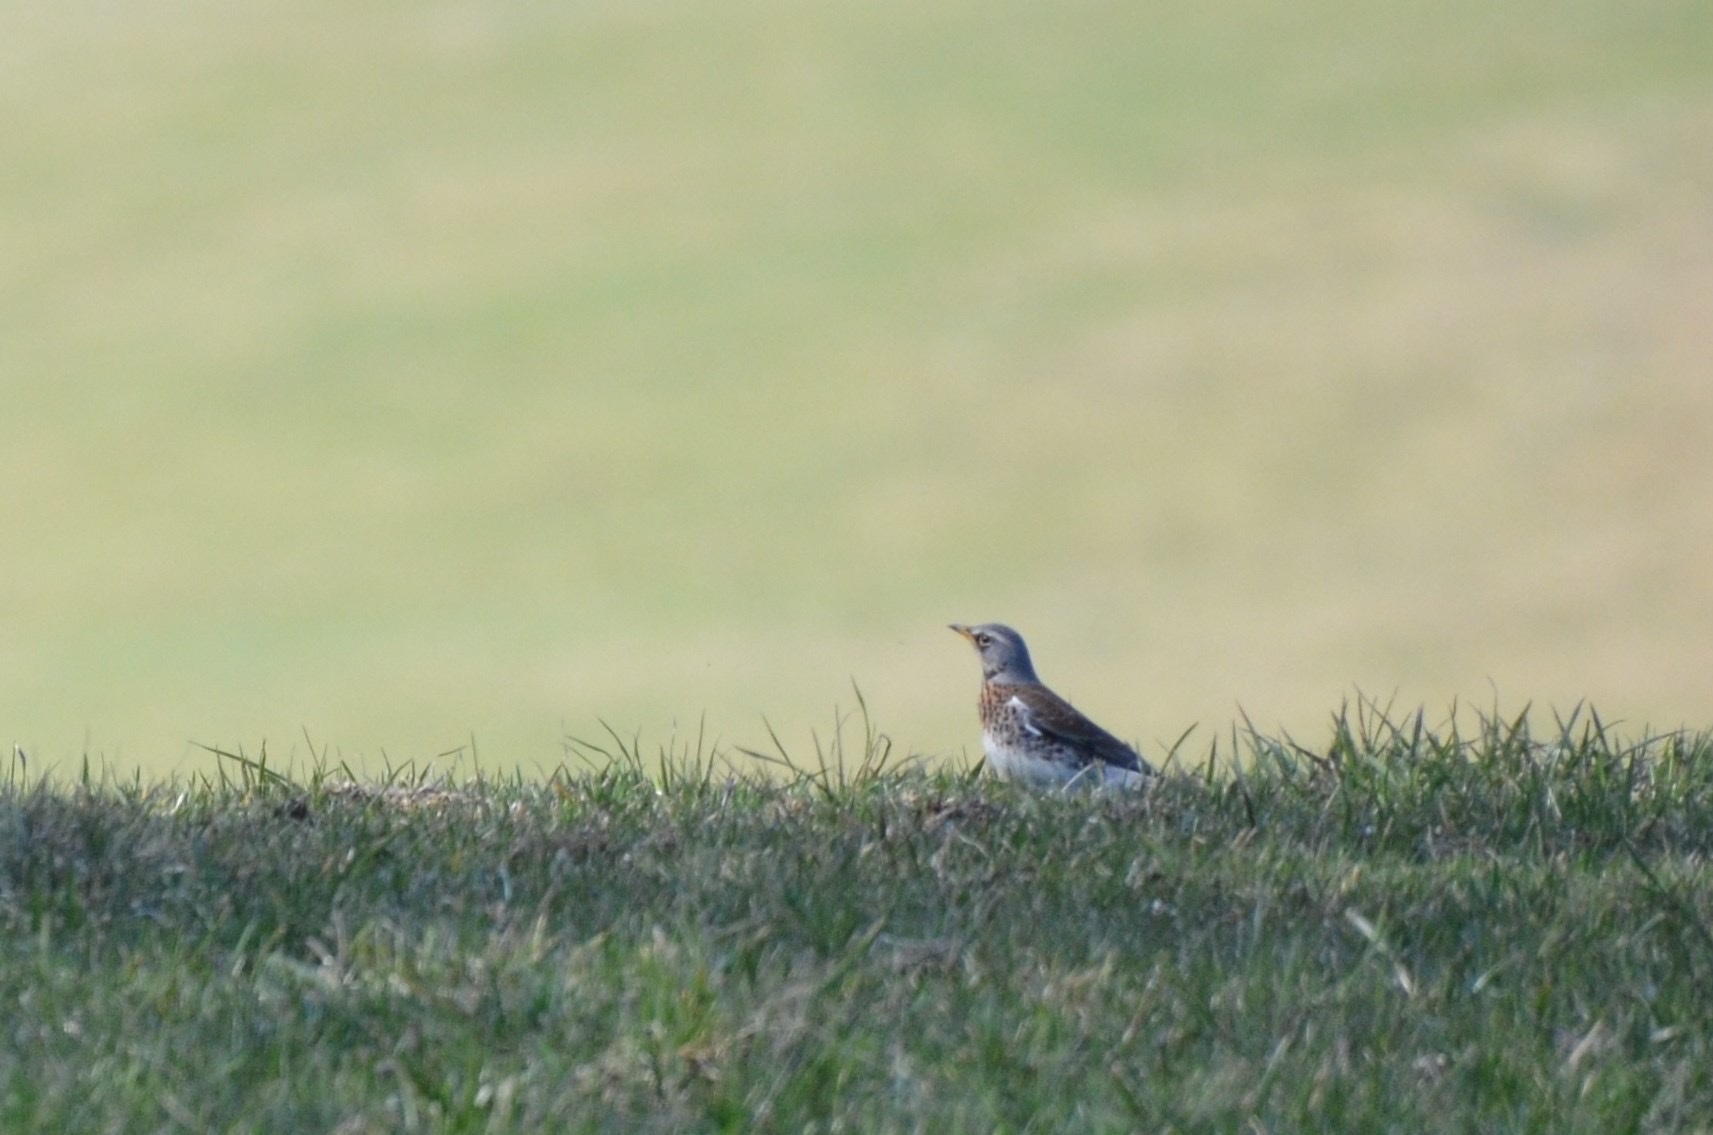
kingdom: Animalia
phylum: Chordata
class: Aves
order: Passeriformes
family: Turdidae
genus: Turdus
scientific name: Turdus pilaris
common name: Fieldfare
